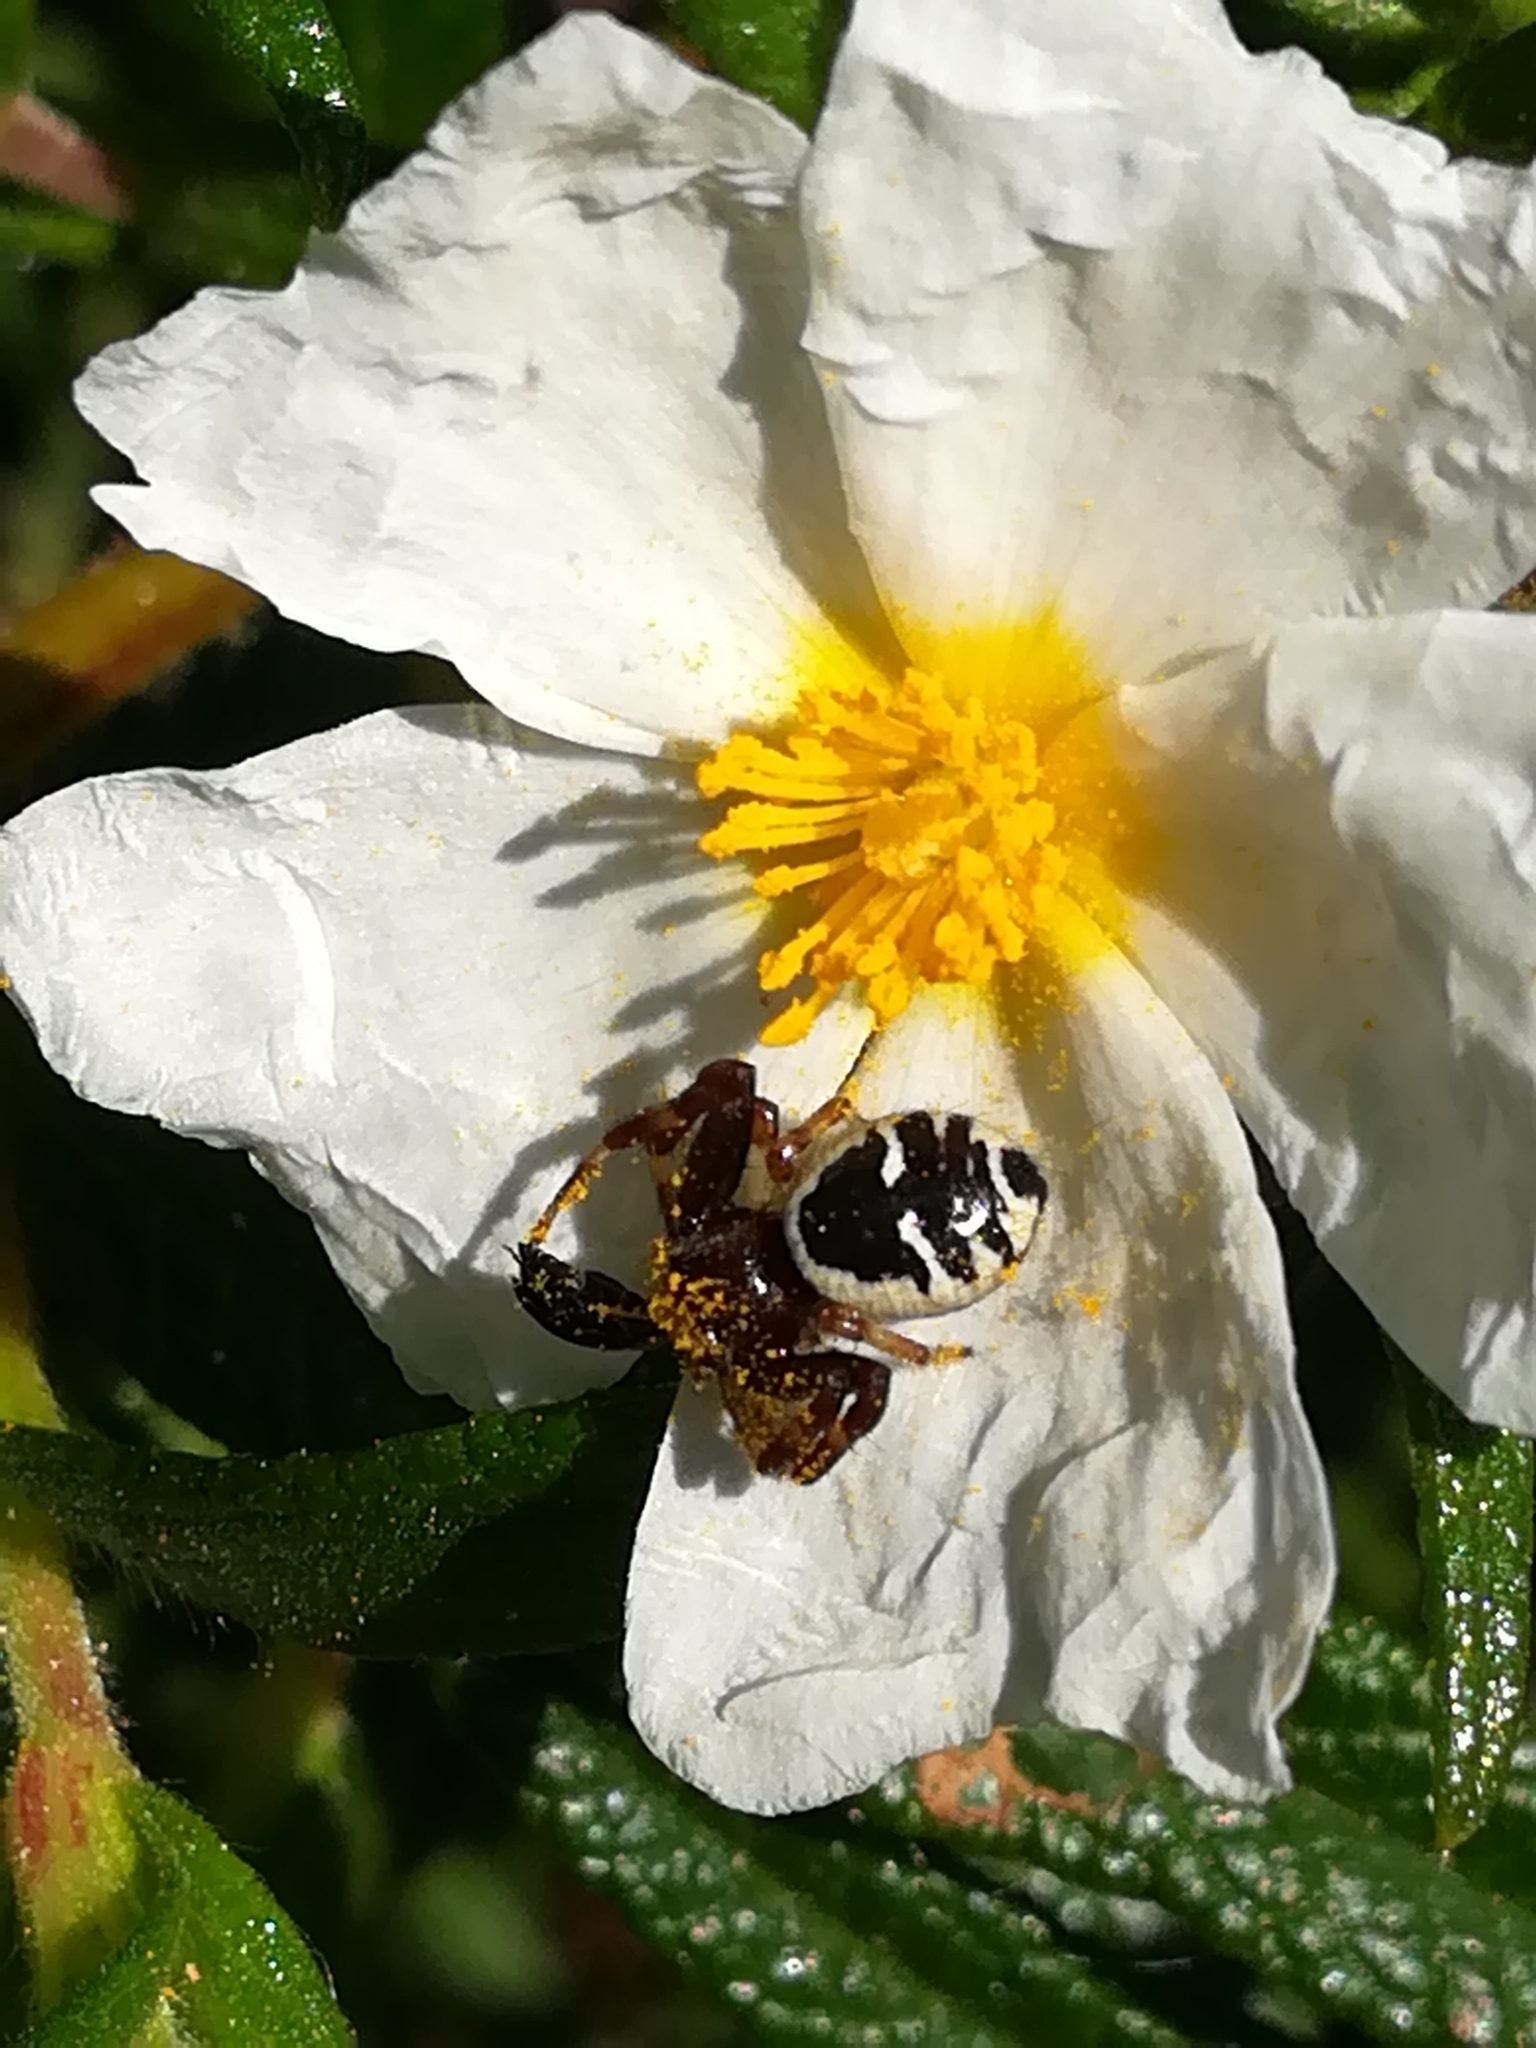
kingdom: Animalia
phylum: Arthropoda
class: Arachnida
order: Araneae
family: Thomisidae
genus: Synema
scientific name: Synema globosum
